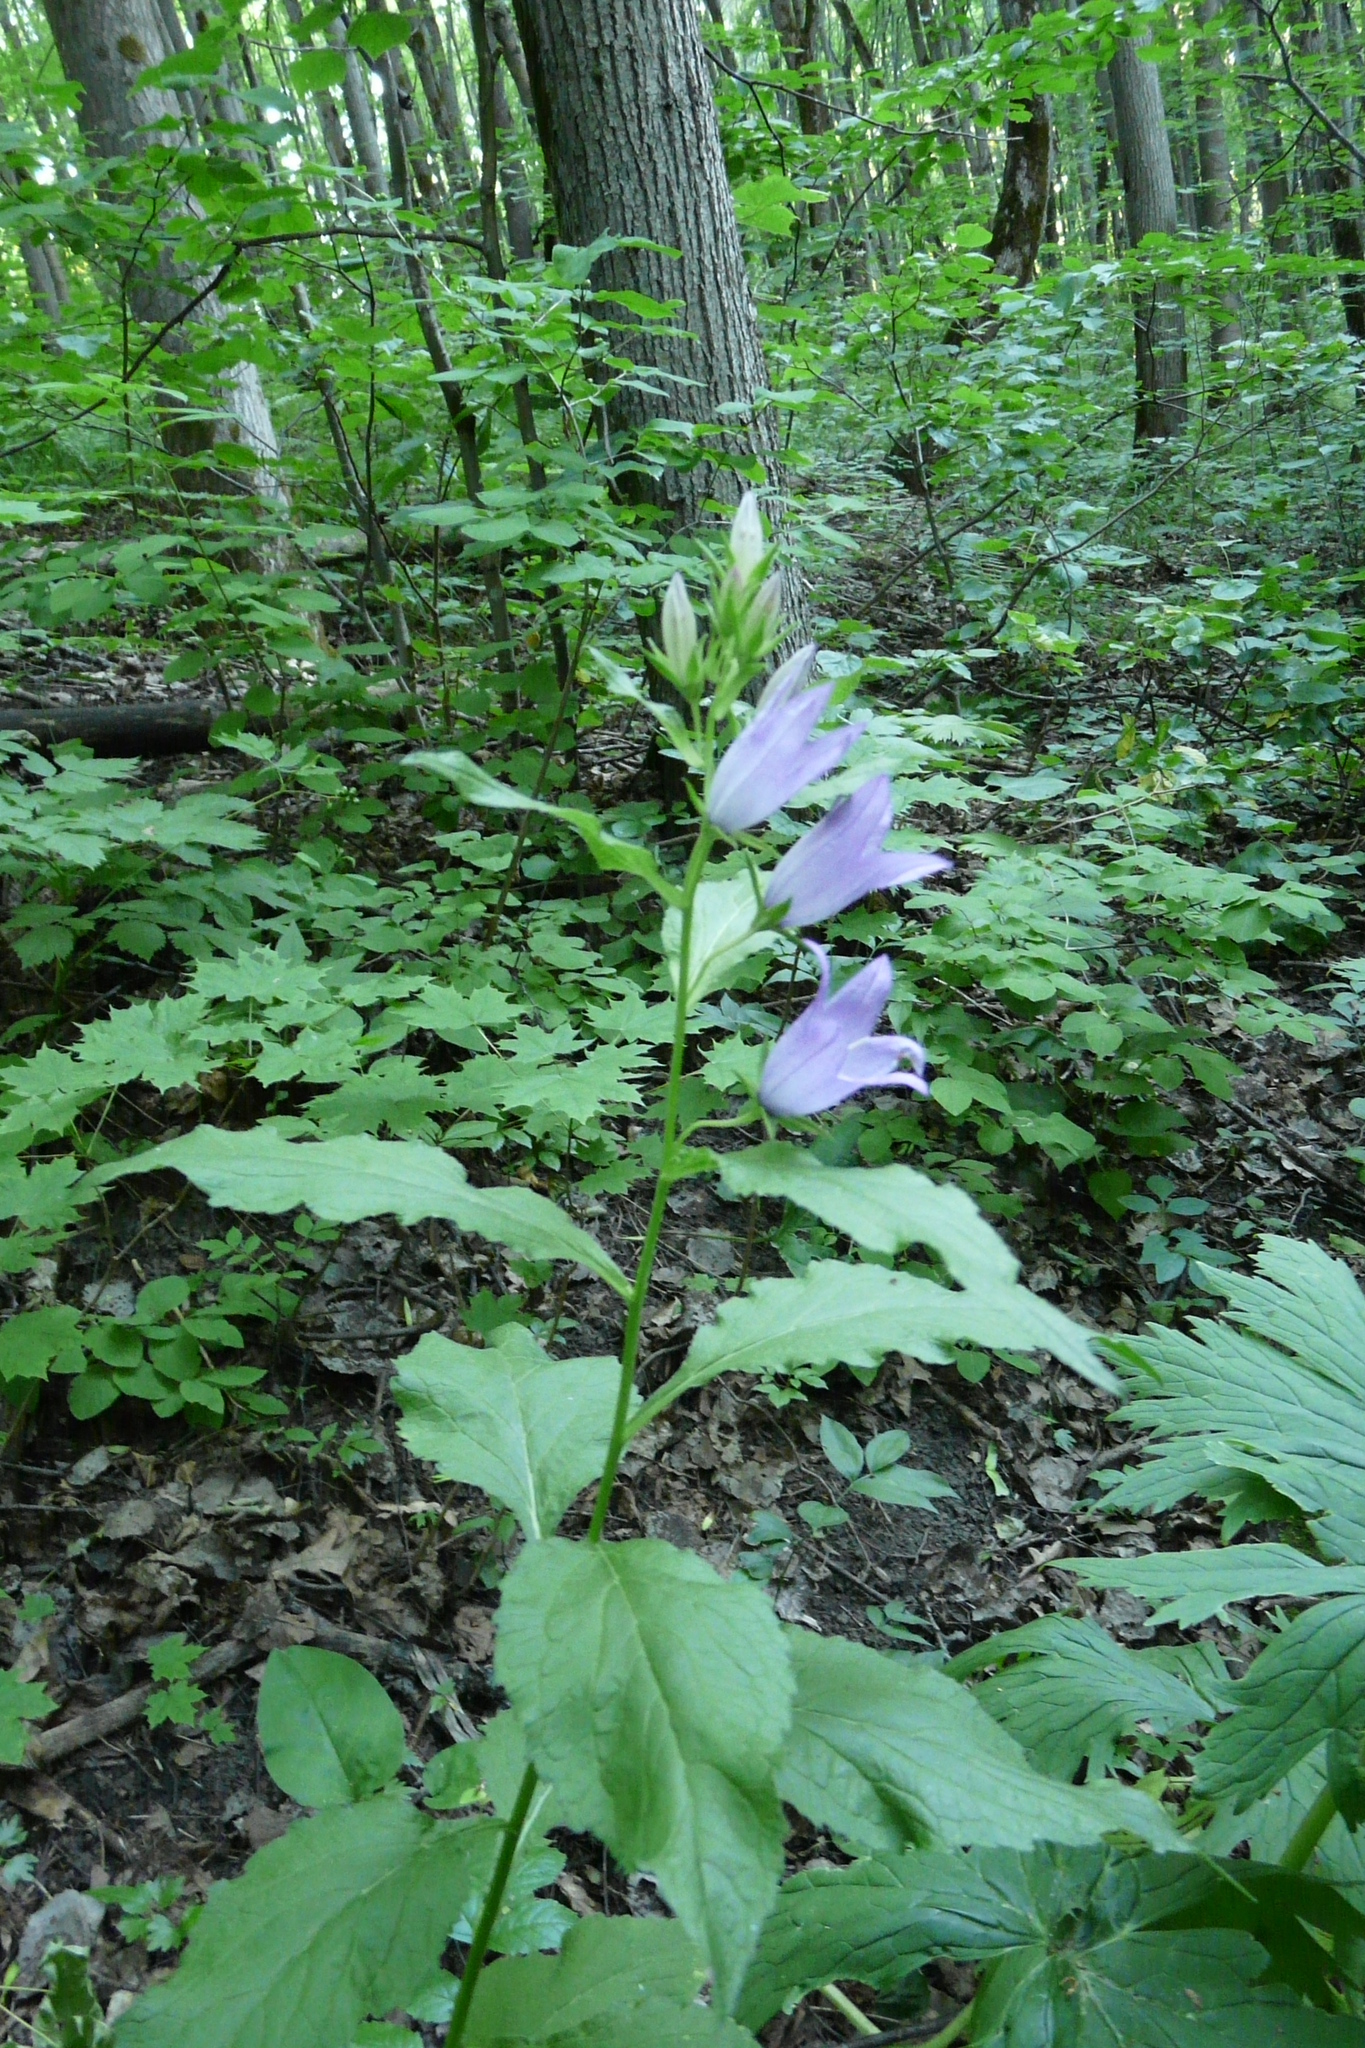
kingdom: Plantae
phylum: Tracheophyta
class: Magnoliopsida
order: Asterales
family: Campanulaceae
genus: Campanula
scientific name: Campanula latifolia
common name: Giant bellflower
